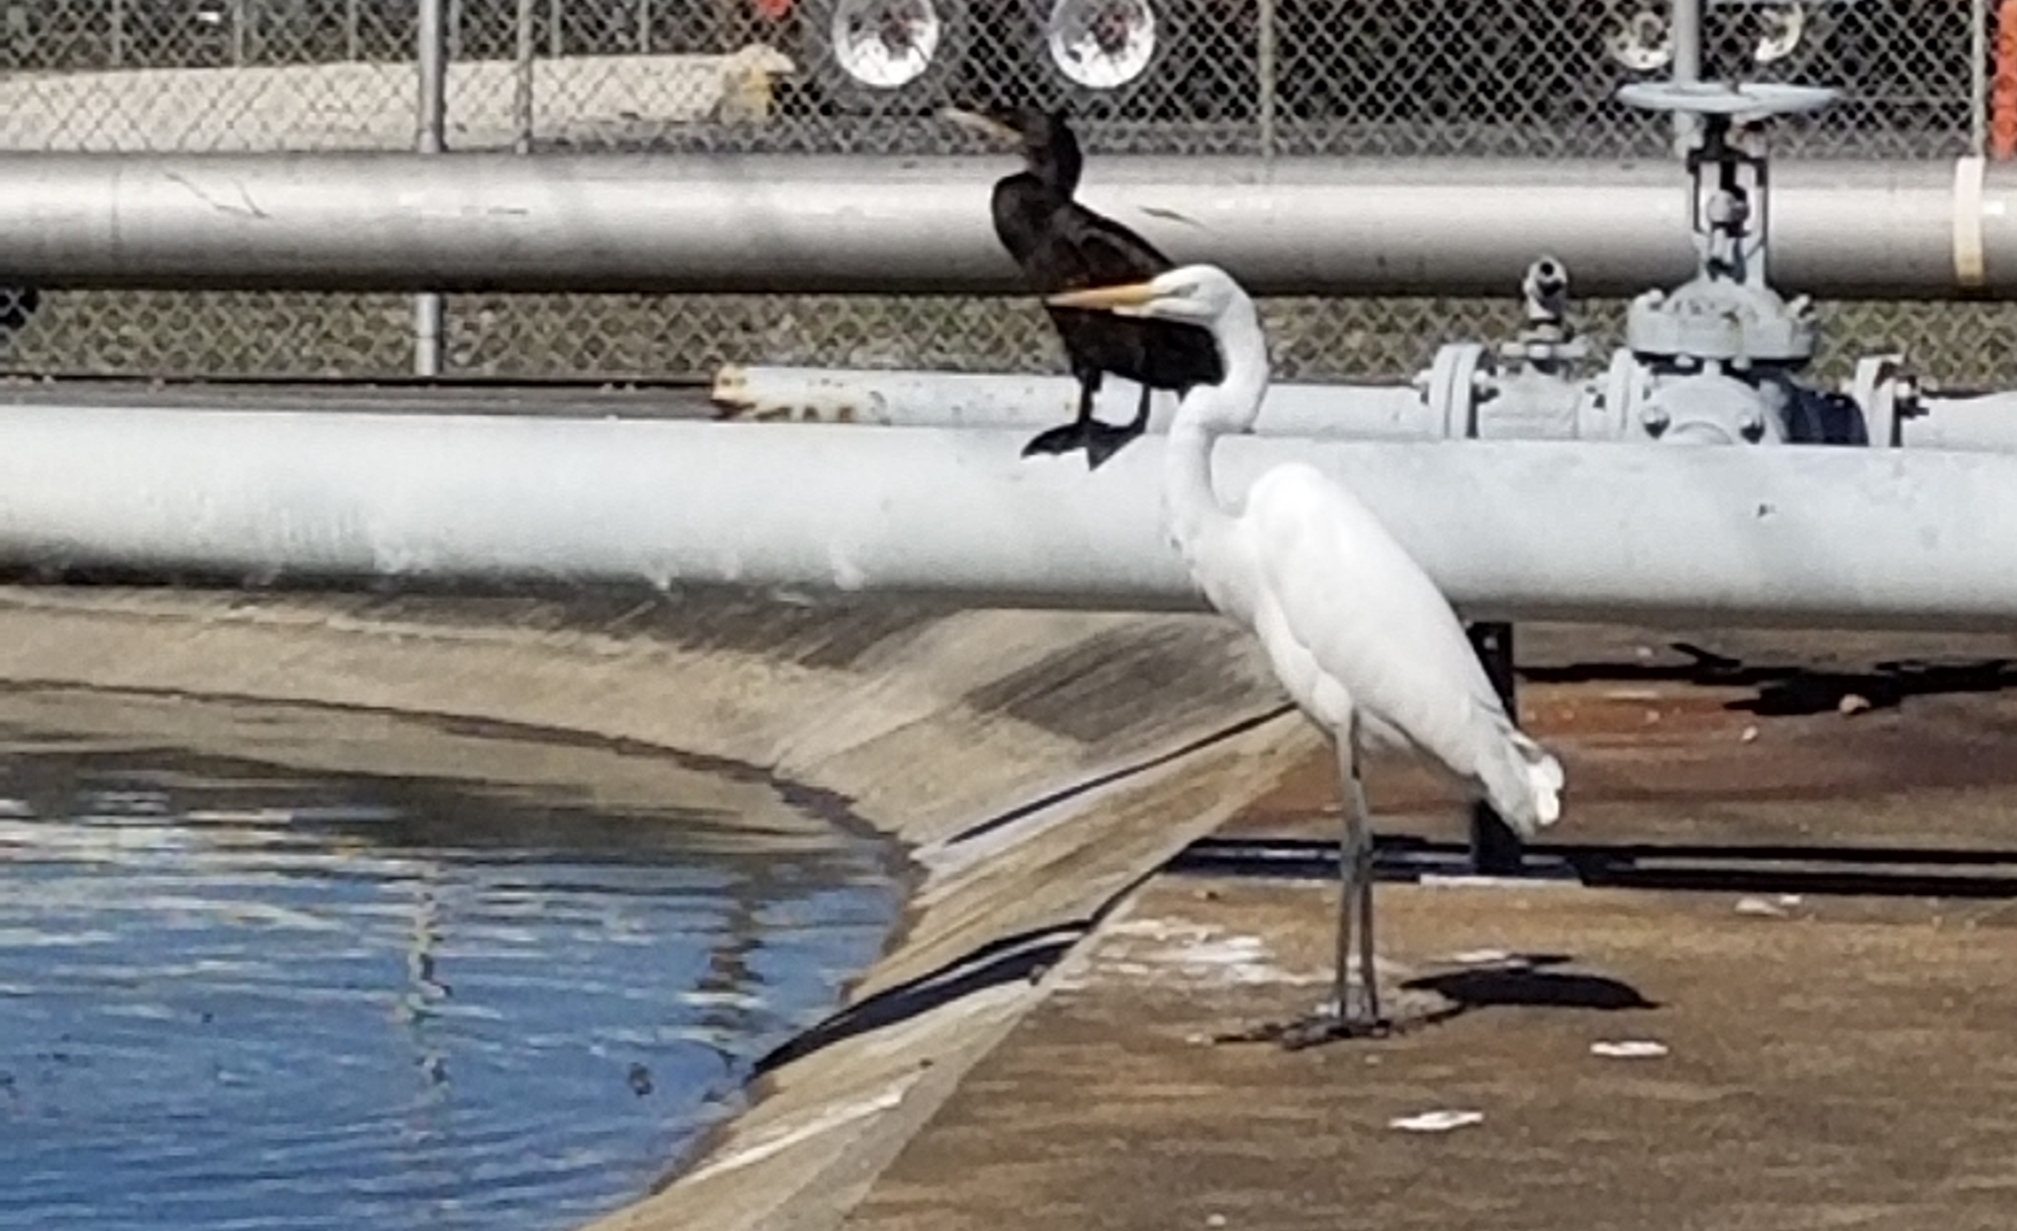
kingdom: Animalia
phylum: Chordata
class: Aves
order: Suliformes
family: Phalacrocoracidae
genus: Phalacrocorax
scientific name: Phalacrocorax brasilianus
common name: Neotropic cormorant
